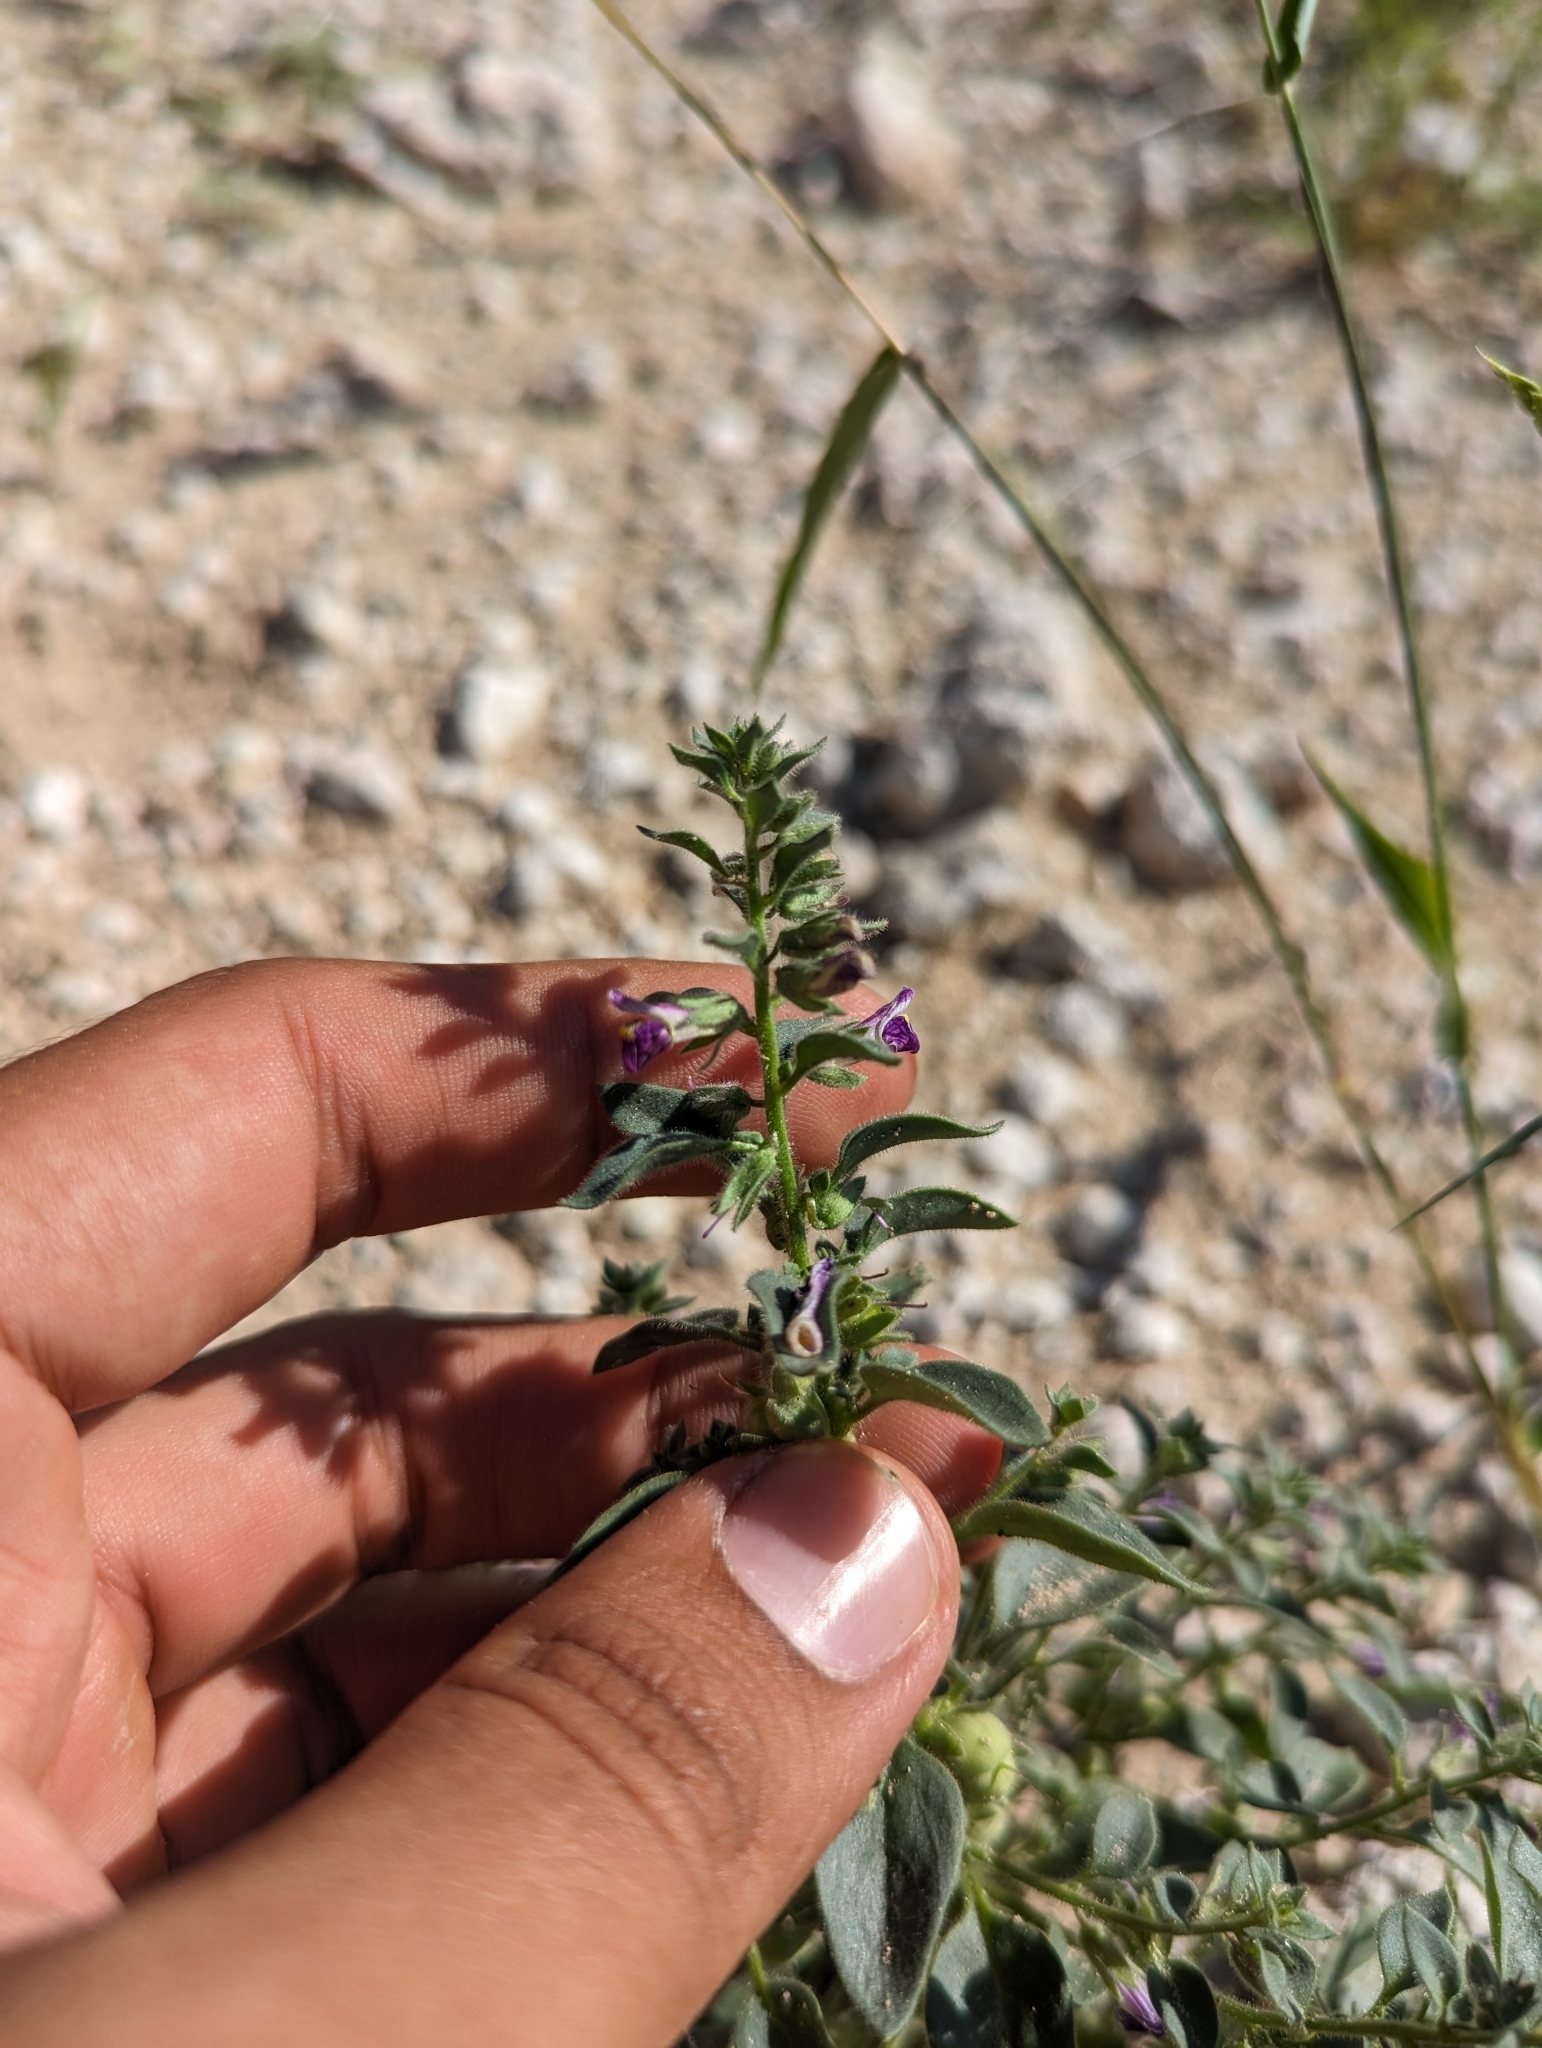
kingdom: Plantae
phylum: Tracheophyta
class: Magnoliopsida
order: Lamiales
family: Plantaginaceae
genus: Pseudorontium
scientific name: Pseudorontium cyathiferum
